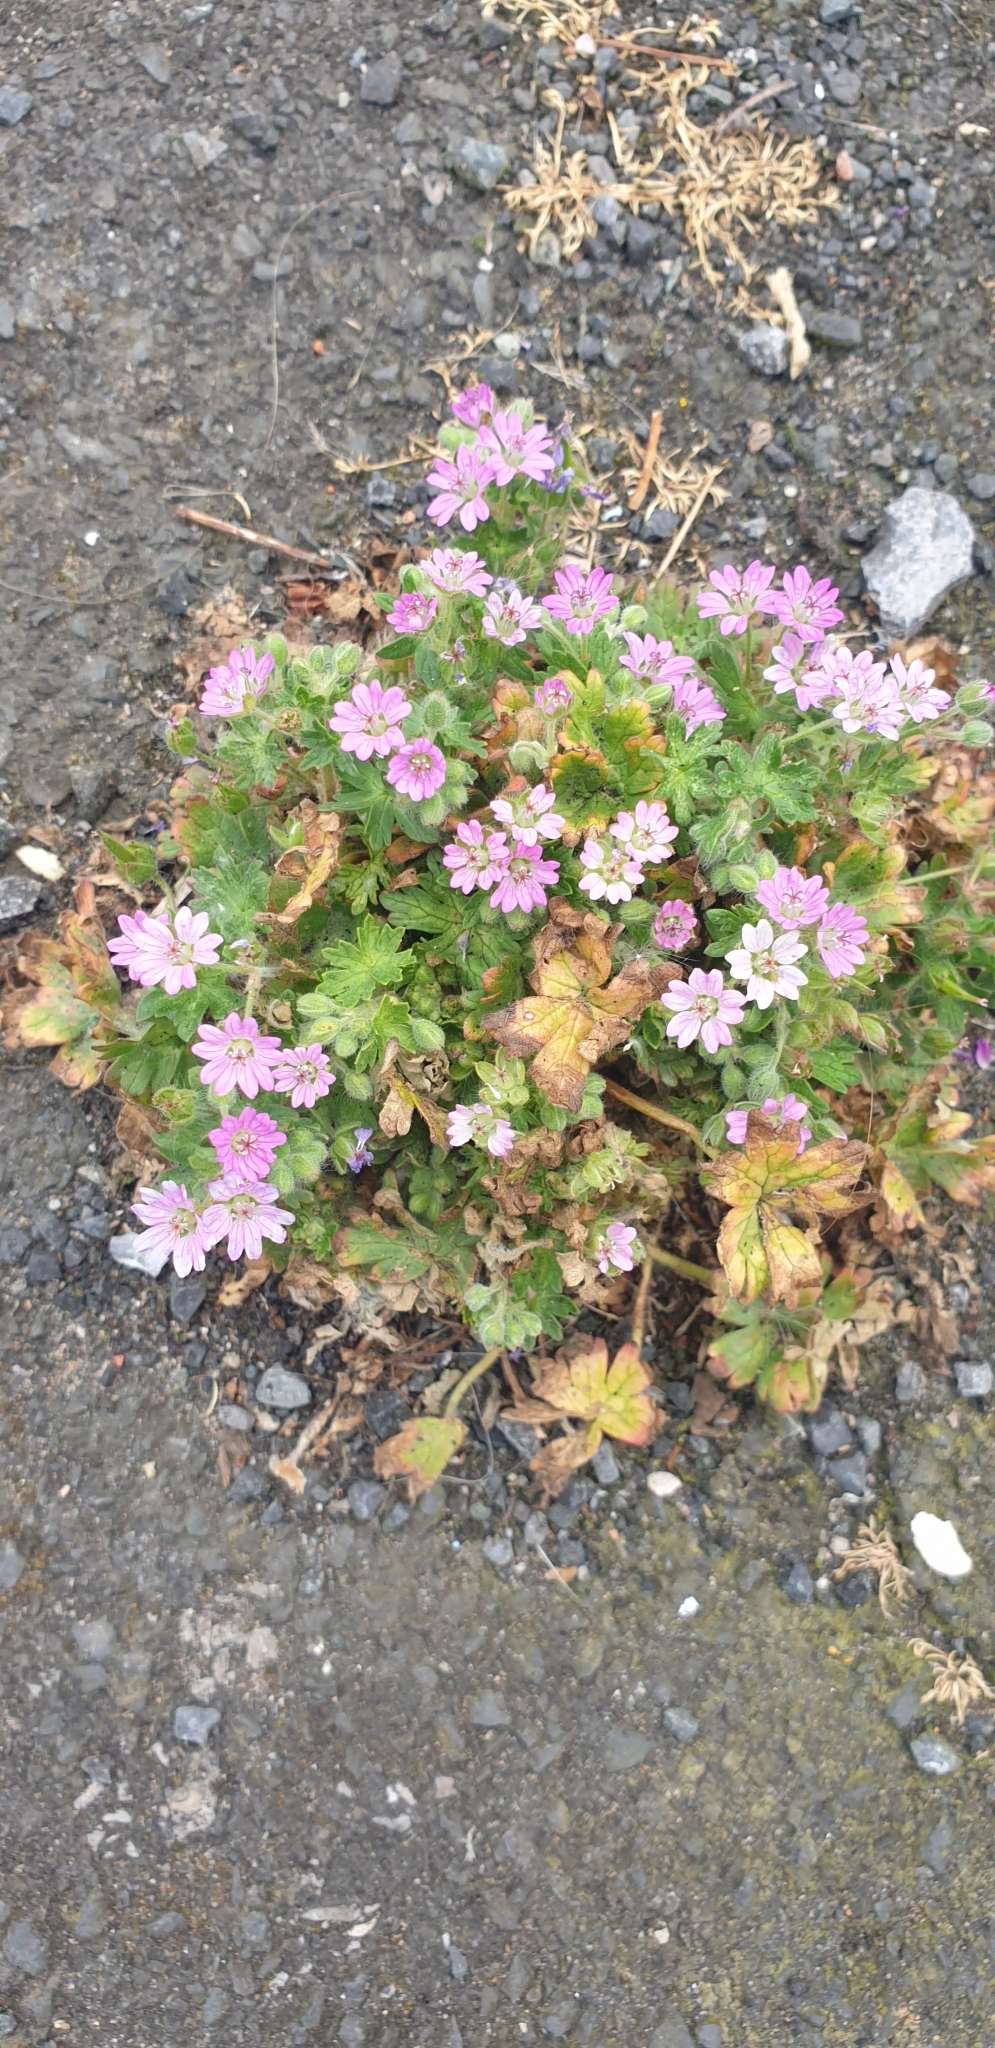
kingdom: Plantae
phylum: Tracheophyta
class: Magnoliopsida
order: Geraniales
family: Geraniaceae
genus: Geranium
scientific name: Geranium molle
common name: Dove's-foot crane's-bill
